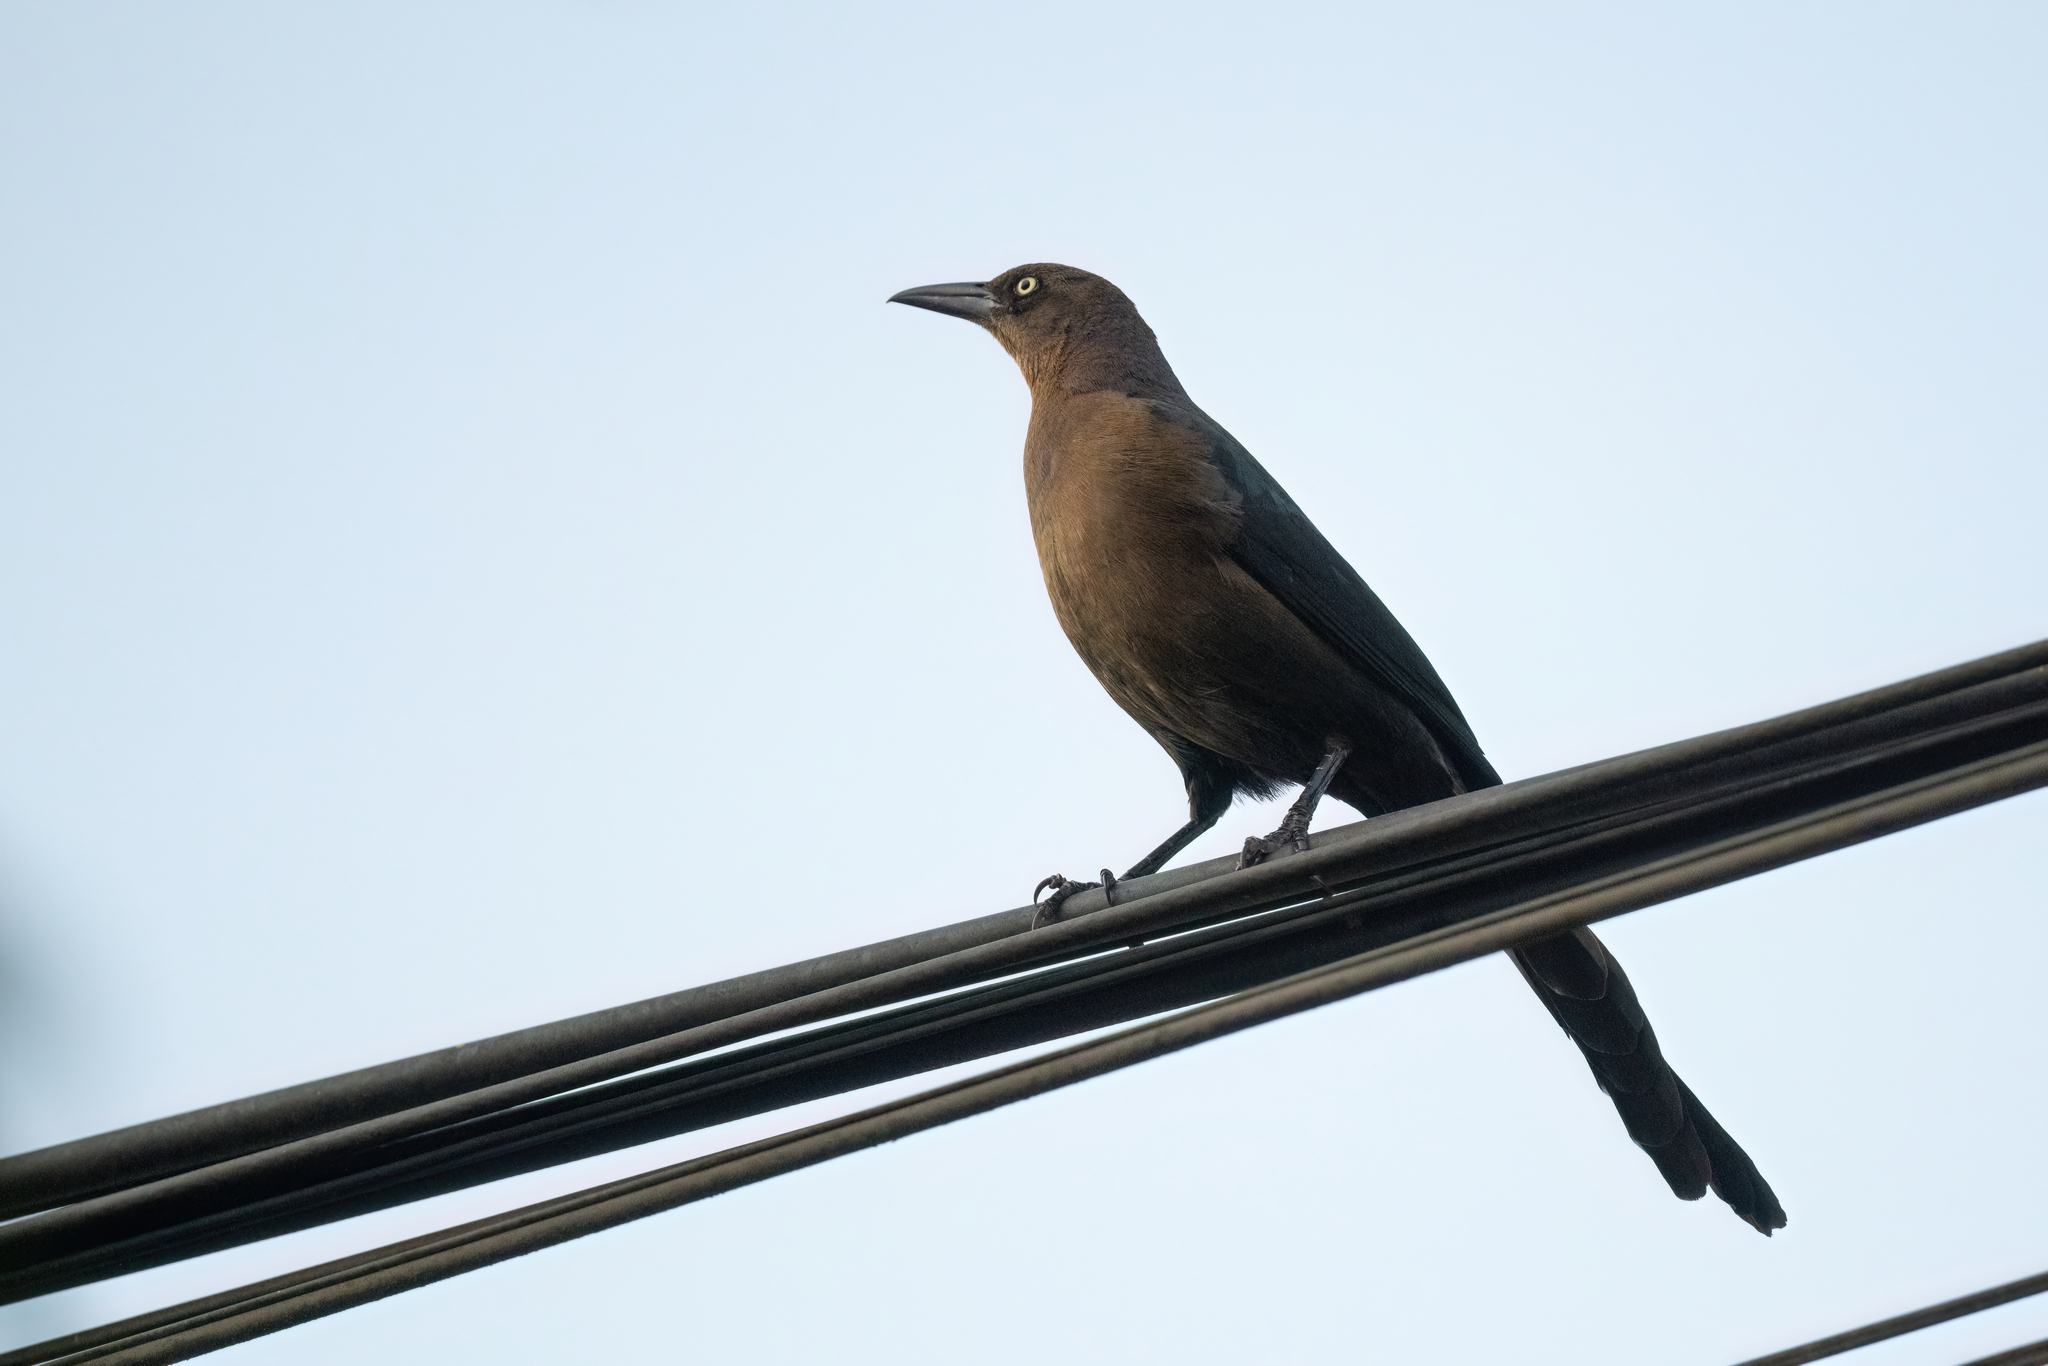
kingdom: Animalia
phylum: Chordata
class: Aves
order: Passeriformes
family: Icteridae
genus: Quiscalus
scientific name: Quiscalus mexicanus
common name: Great-tailed grackle
